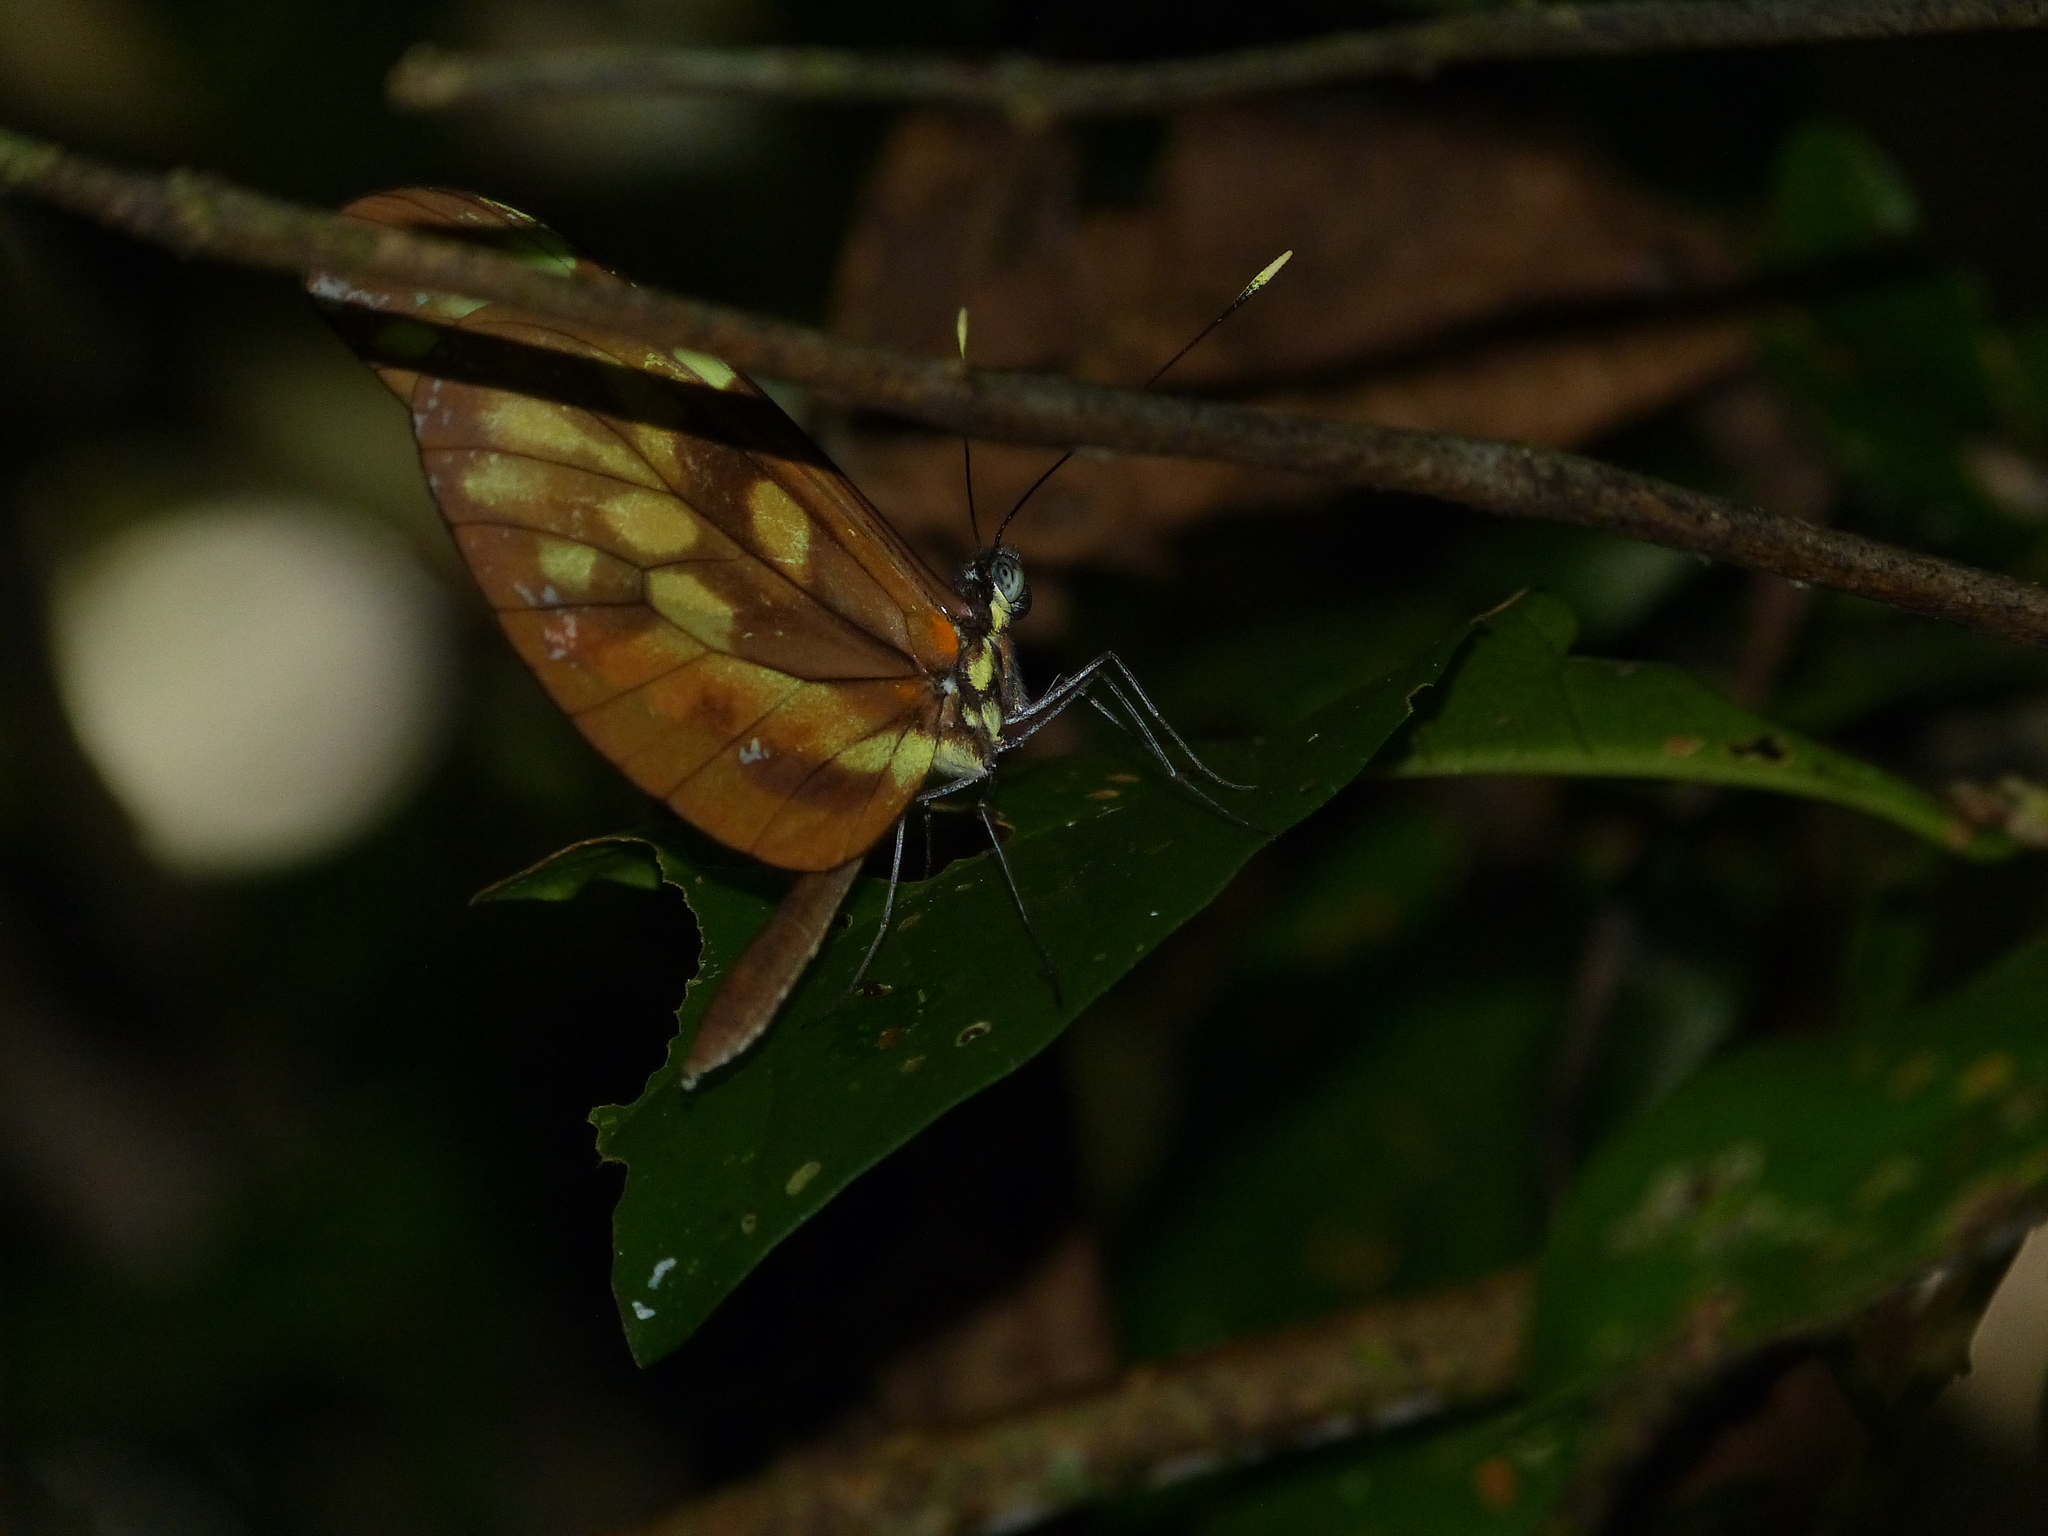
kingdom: Animalia
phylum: Arthropoda
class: Insecta
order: Lepidoptera
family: Pieridae
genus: Dismorphia
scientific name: Dismorphia amphione
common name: Tiger mimic-white
